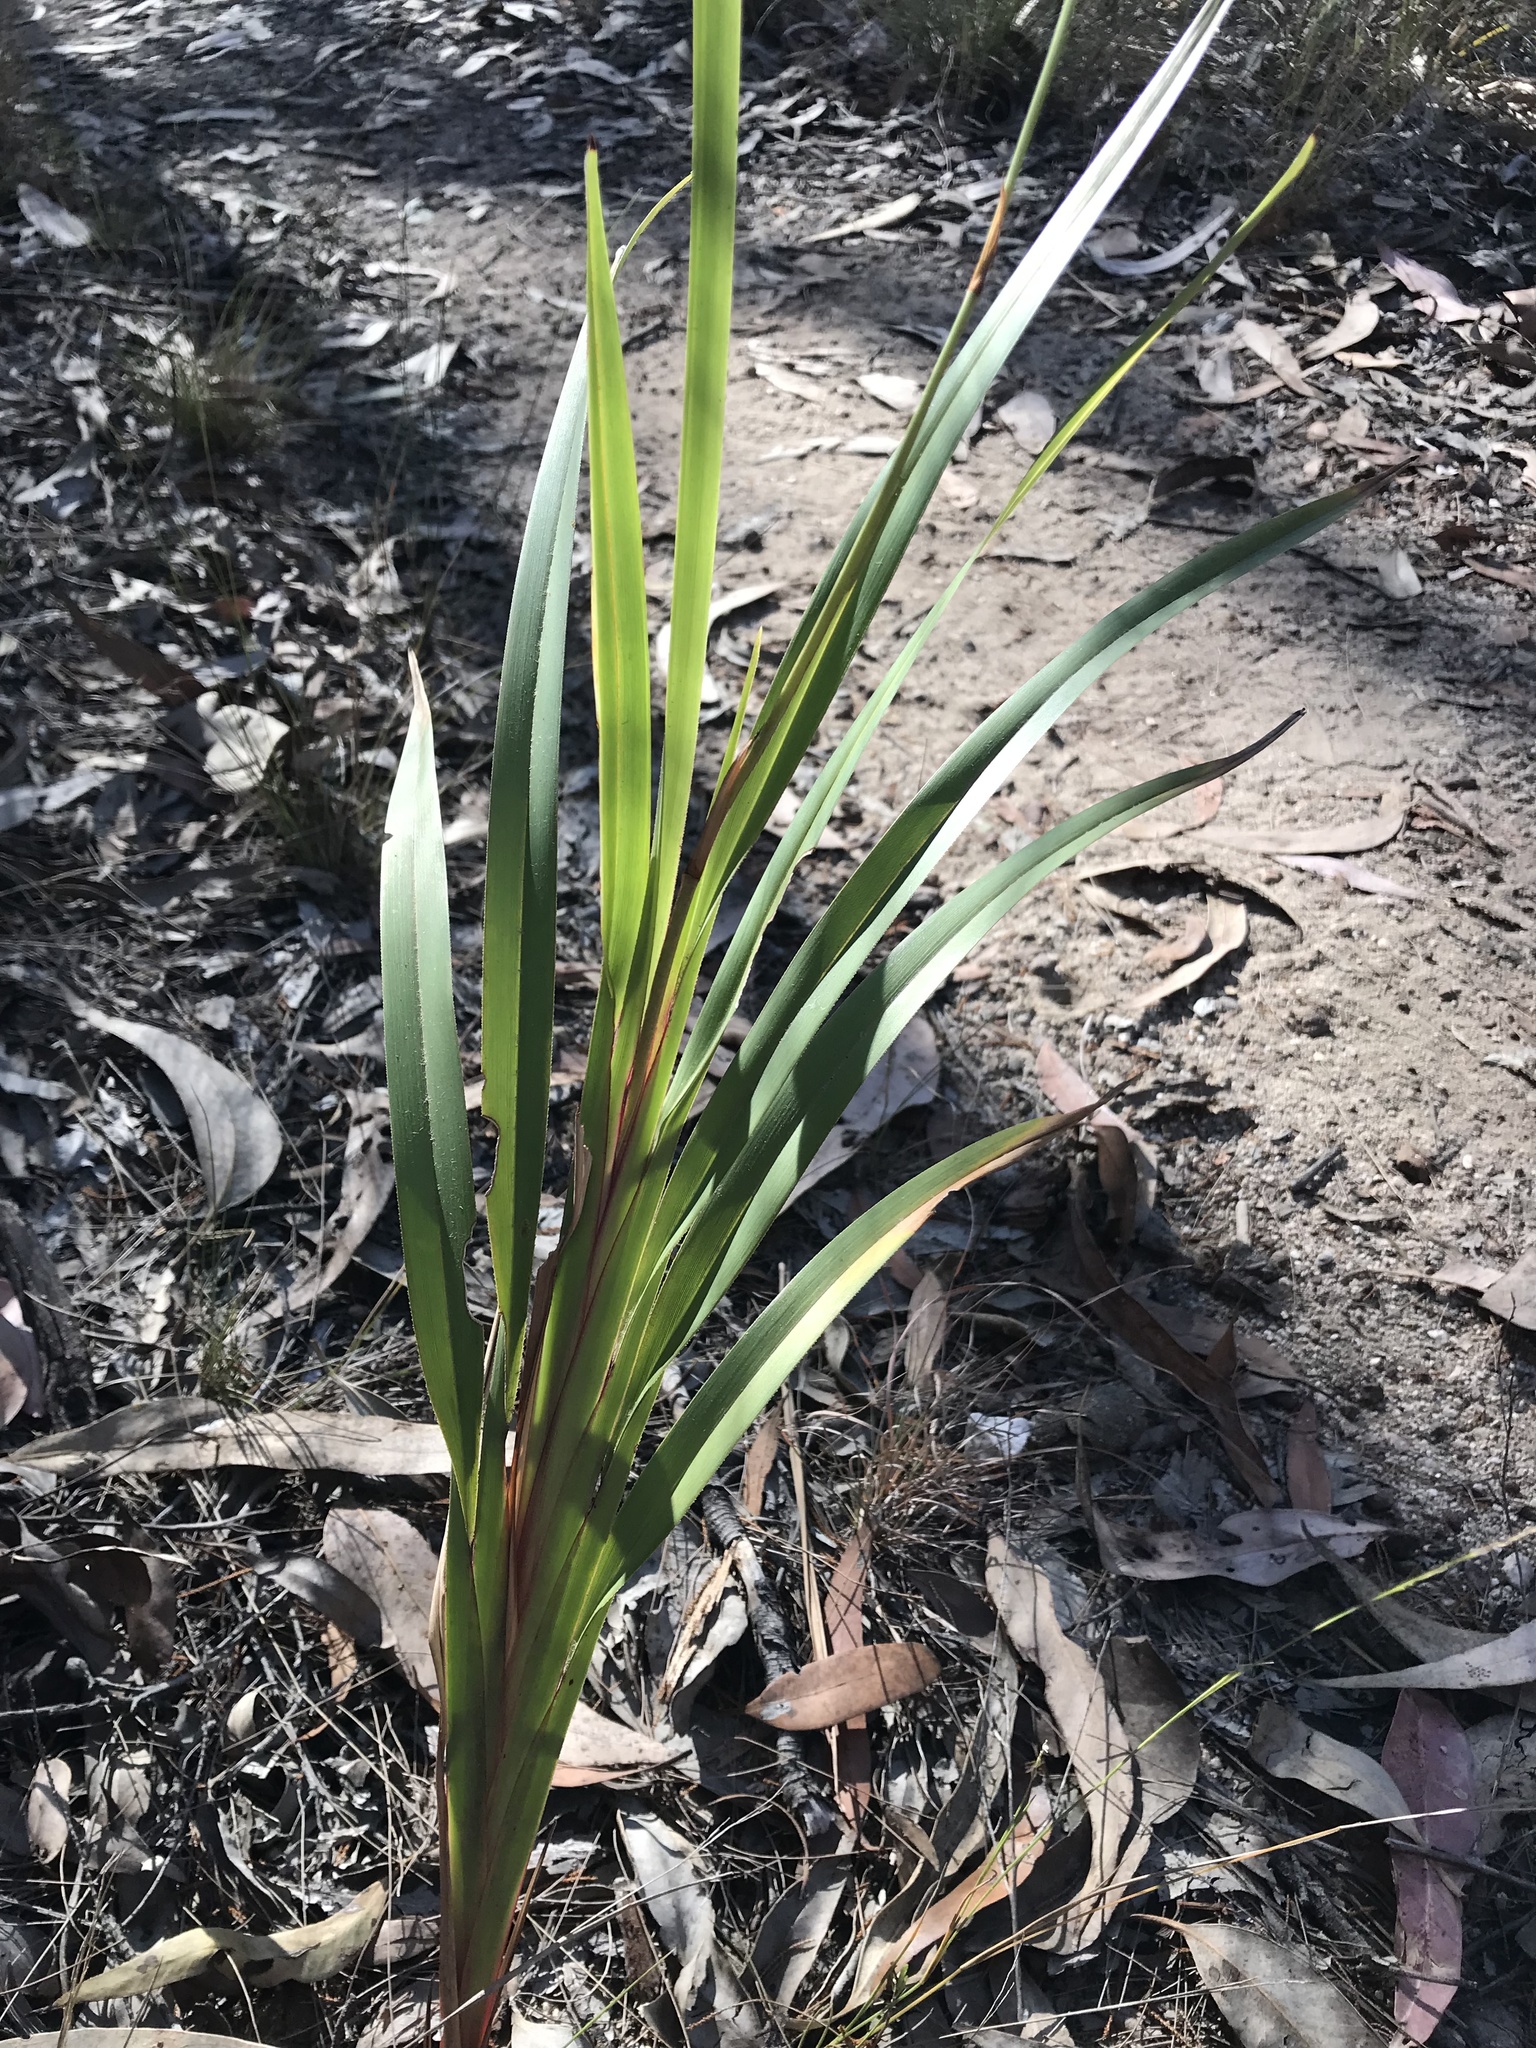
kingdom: Plantae
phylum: Tracheophyta
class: Liliopsida
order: Asparagales
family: Asphodelaceae
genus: Dianella
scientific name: Dianella caerulea
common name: Blue flax-lily
